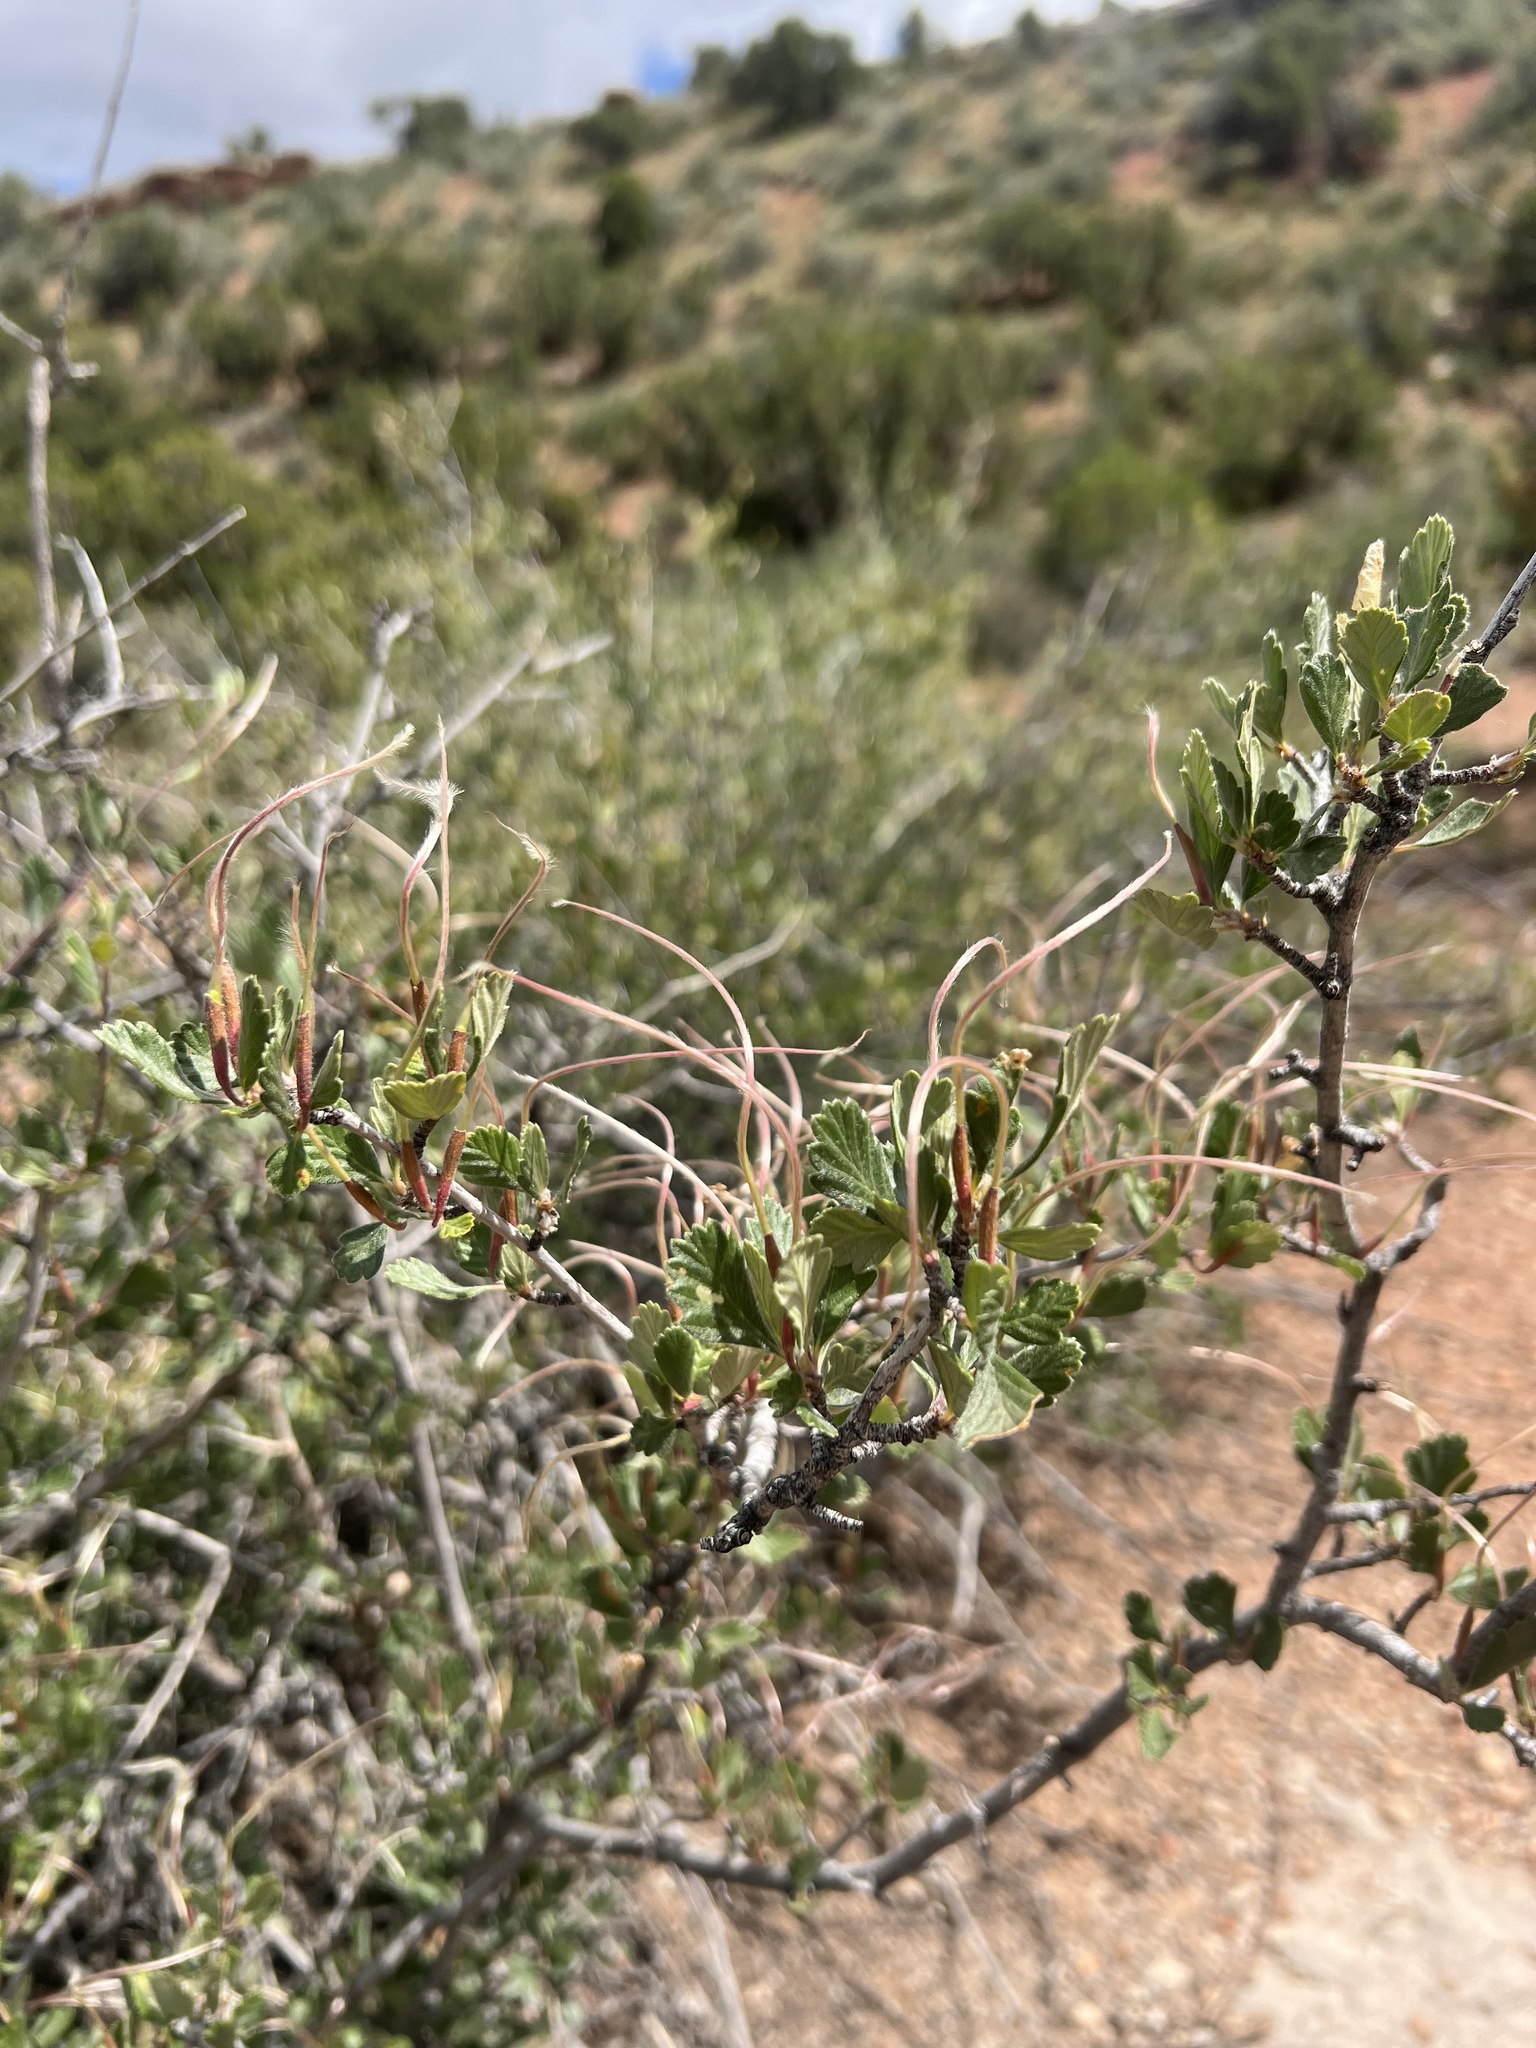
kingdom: Plantae
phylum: Tracheophyta
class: Magnoliopsida
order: Rosales
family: Rosaceae
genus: Cercocarpus
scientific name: Cercocarpus montanus
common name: Alder-leaf cercocarpus
